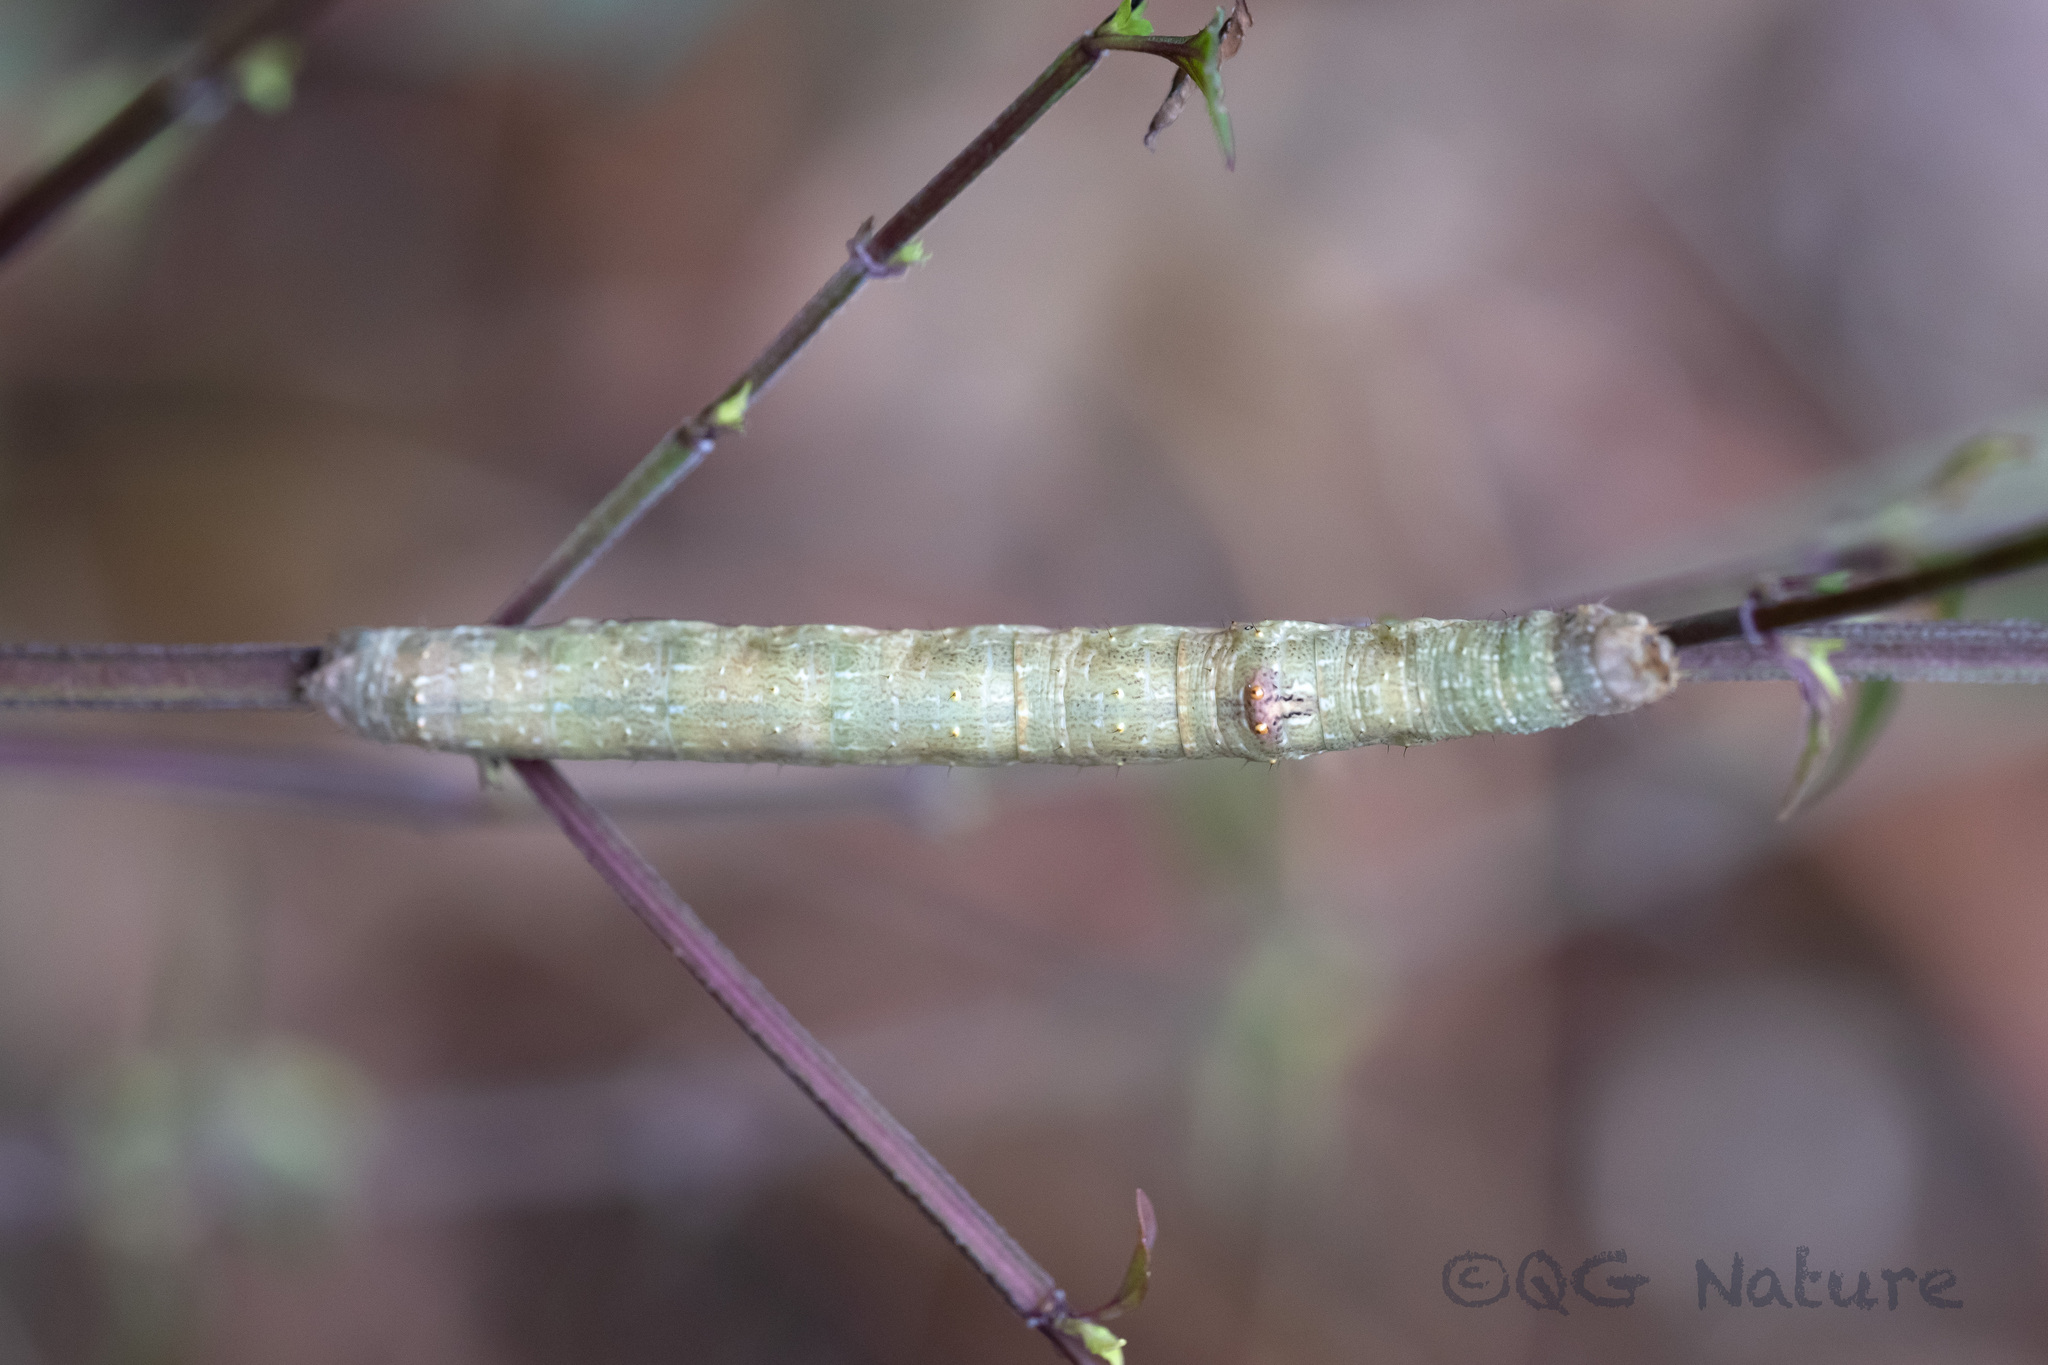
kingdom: Animalia
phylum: Arthropoda
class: Insecta
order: Lepidoptera
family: Geometridae
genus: Ascotis
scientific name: Ascotis selenaria
